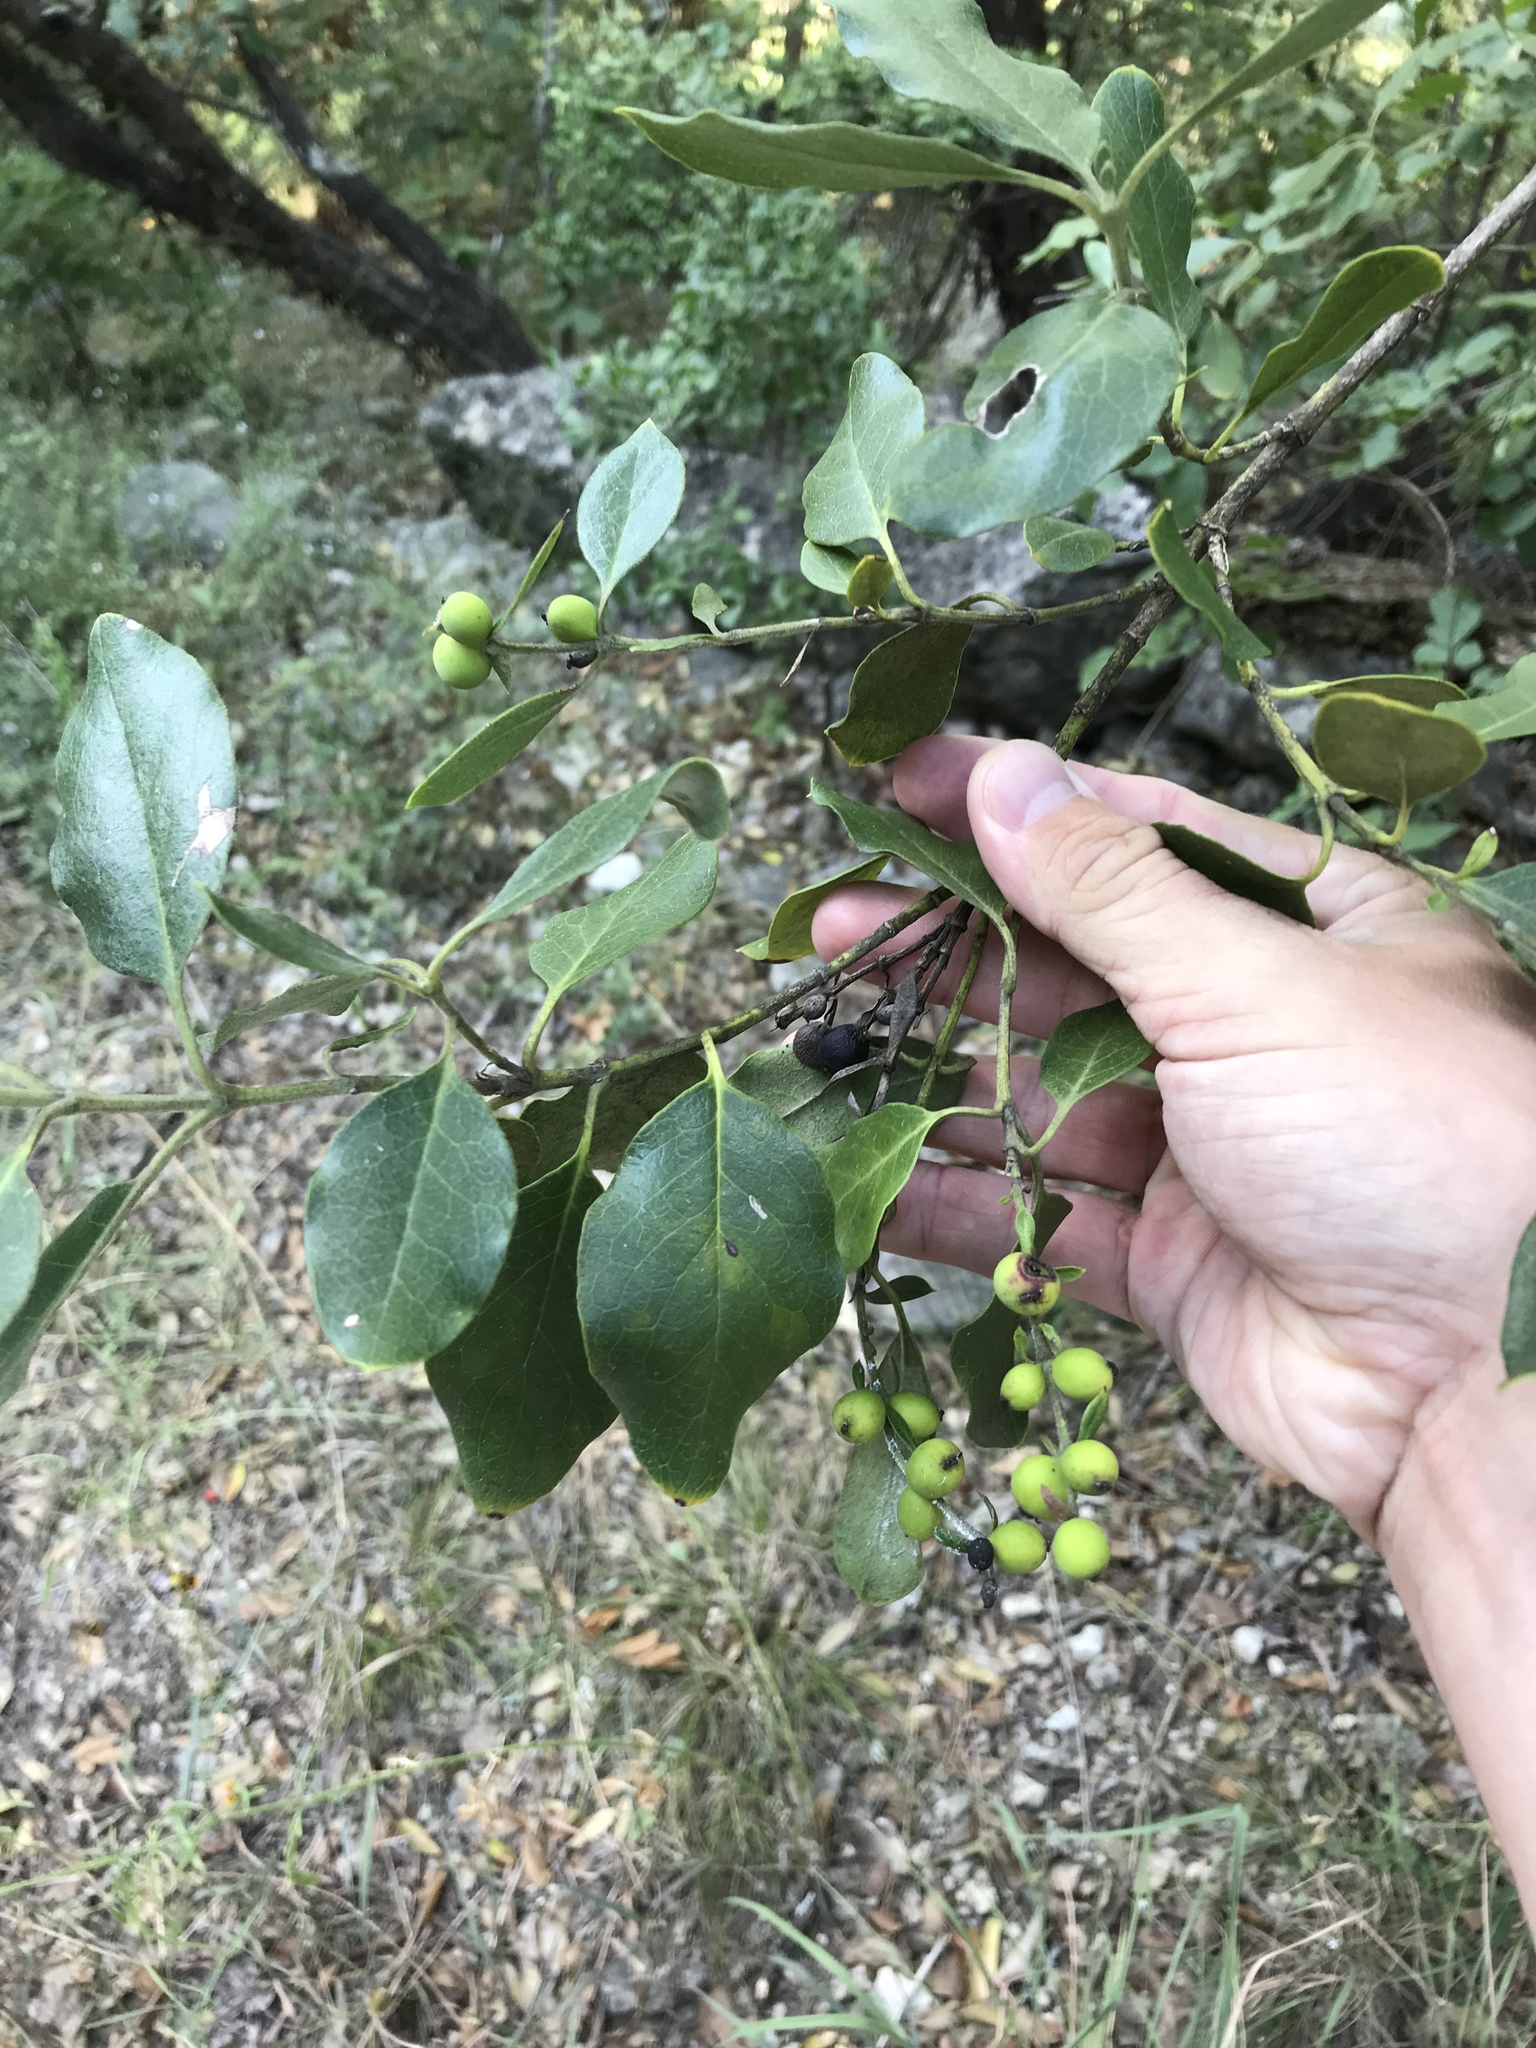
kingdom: Plantae
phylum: Tracheophyta
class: Magnoliopsida
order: Garryales
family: Garryaceae
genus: Garrya
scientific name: Garrya lindheimeri
